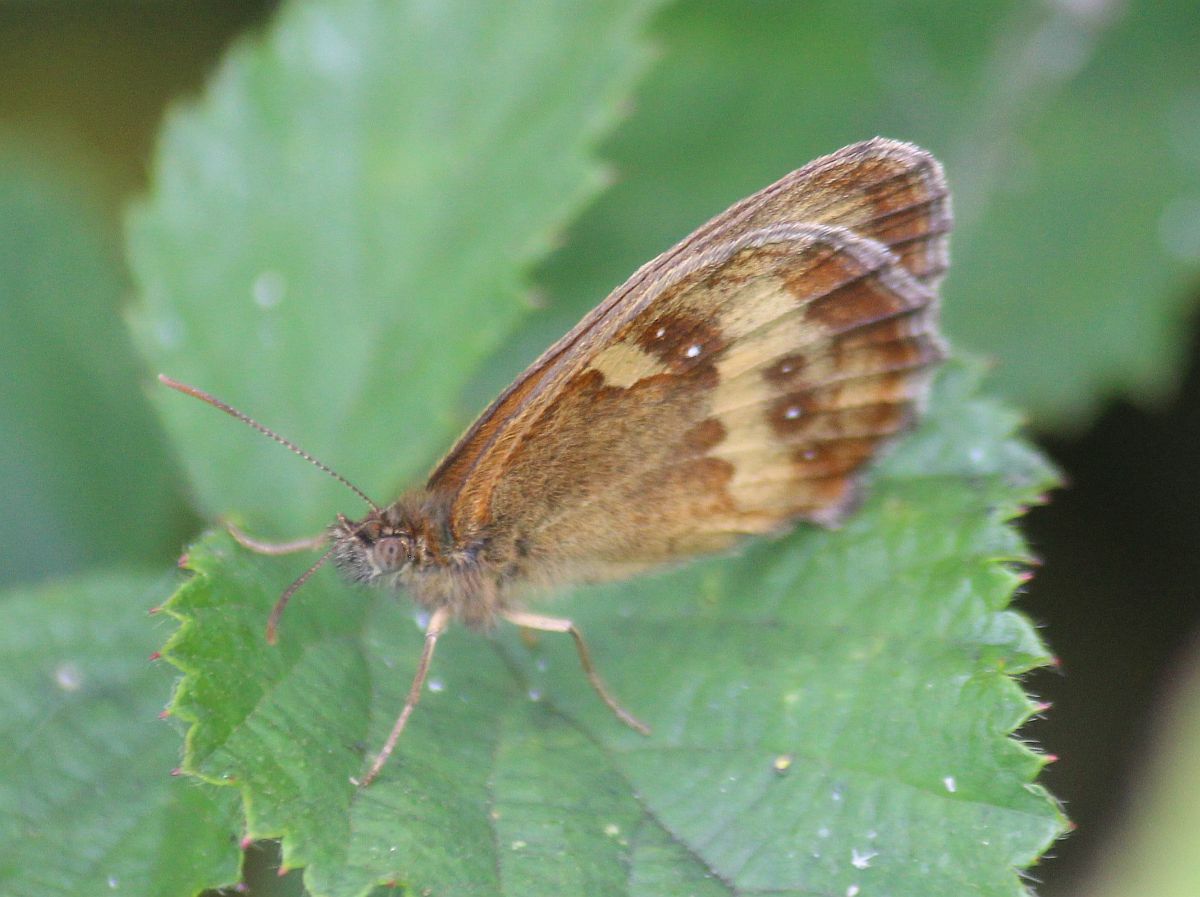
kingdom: Animalia
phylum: Arthropoda
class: Insecta
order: Lepidoptera
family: Nymphalidae
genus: Pyronia
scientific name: Pyronia tithonus
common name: Gatekeeper
